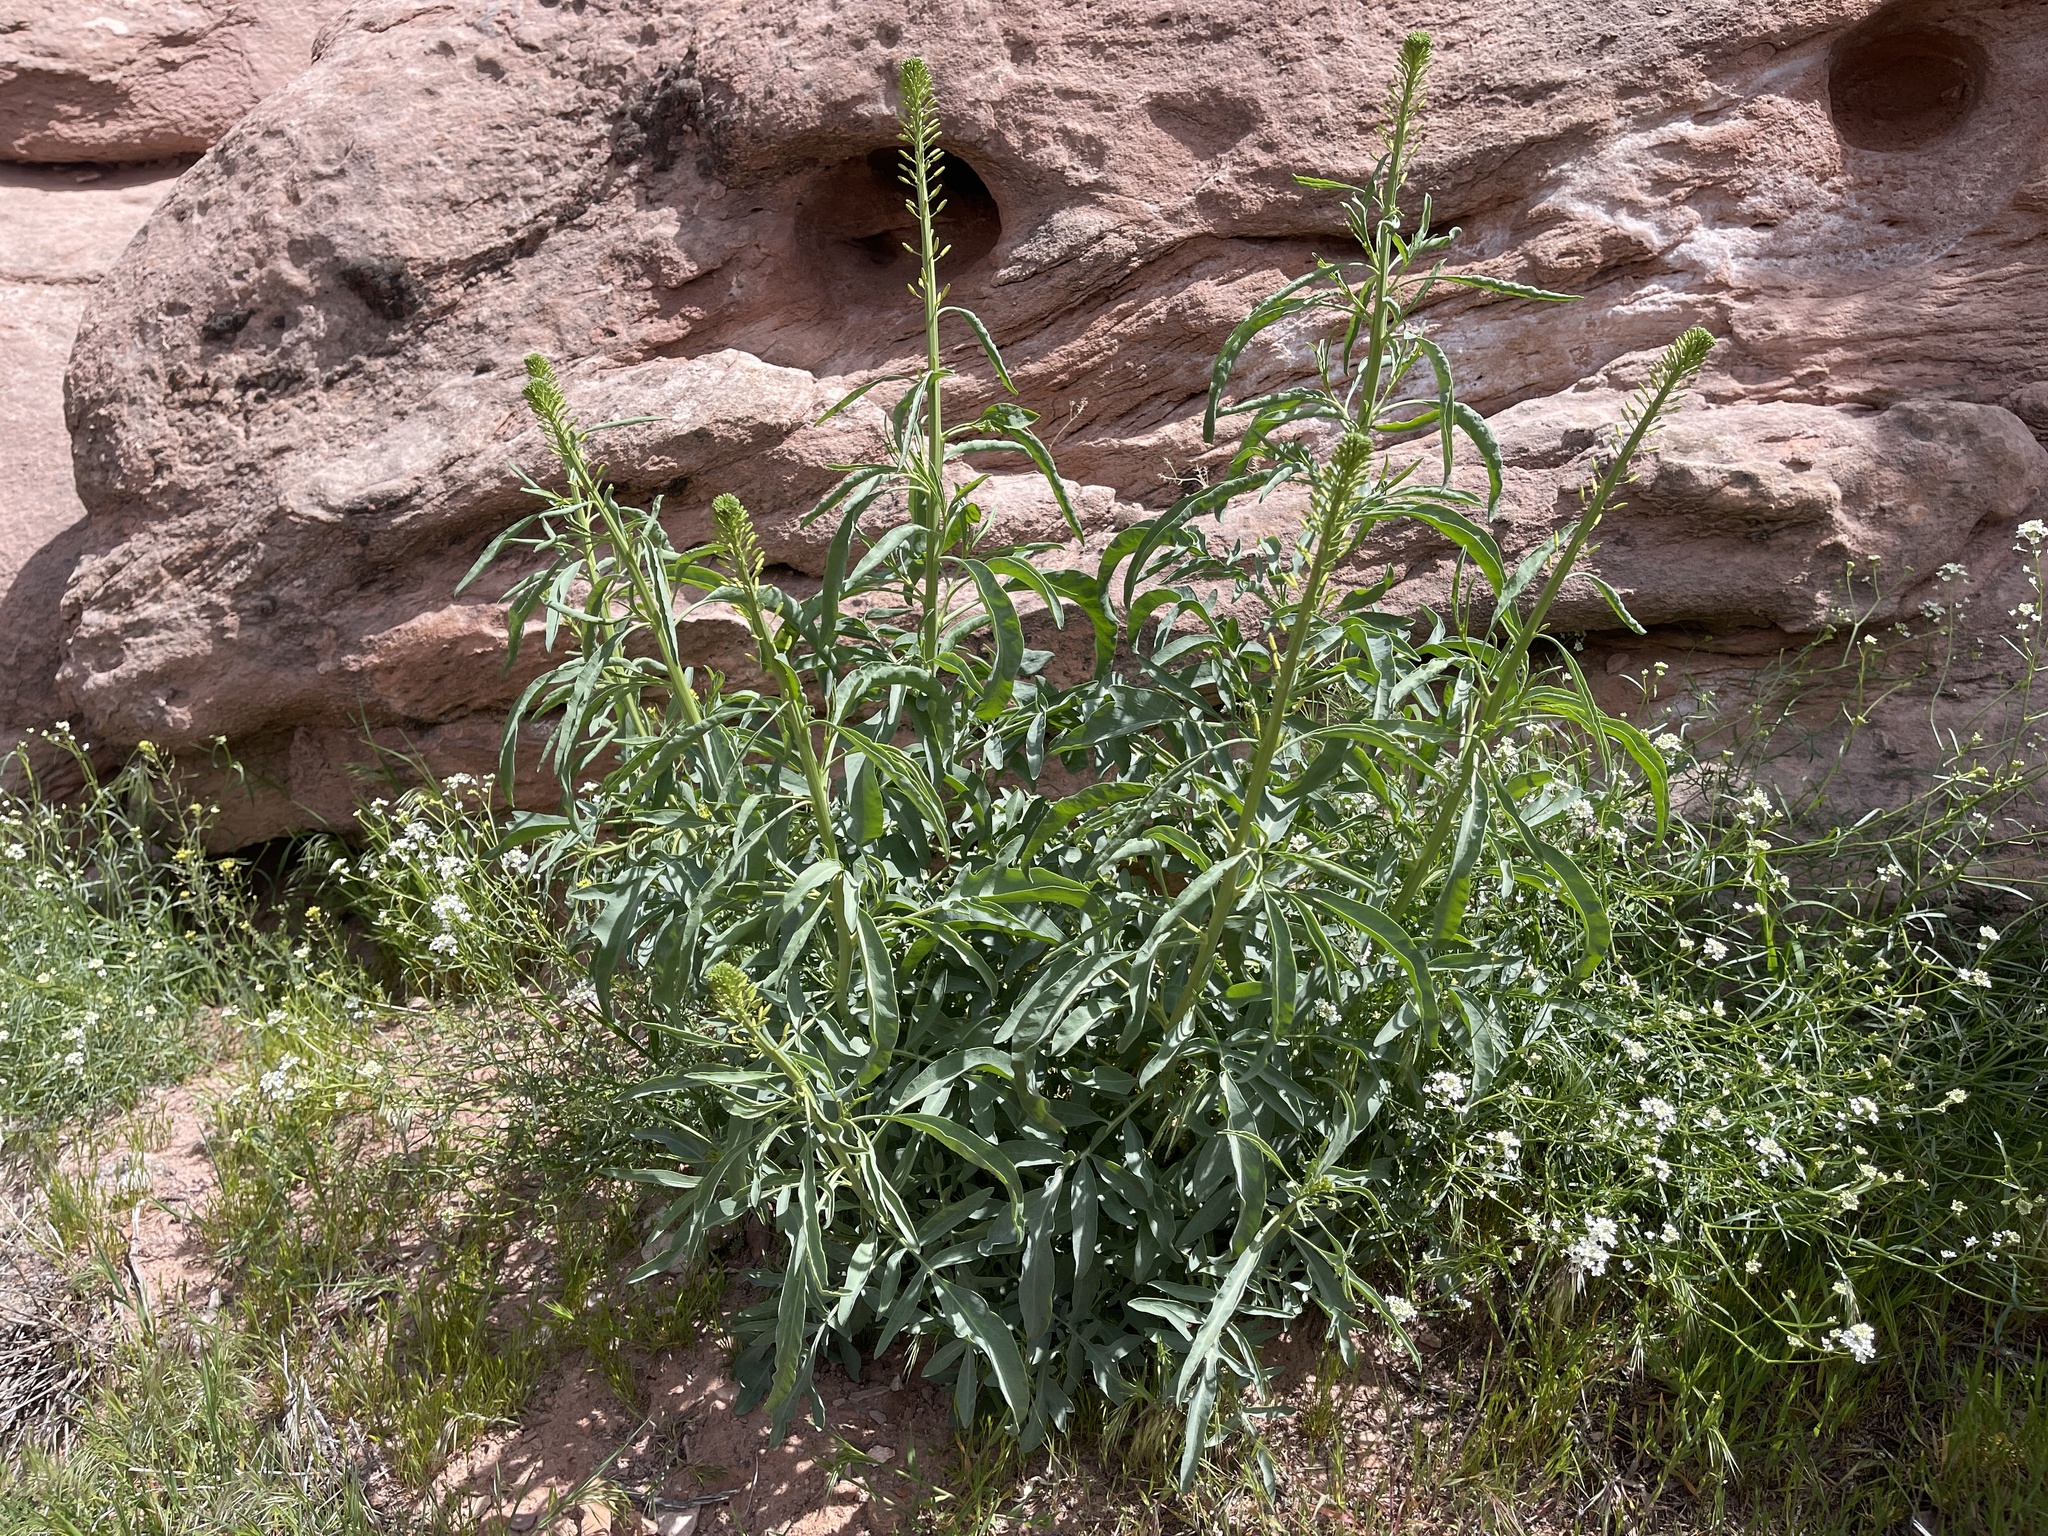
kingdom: Plantae
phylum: Tracheophyta
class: Magnoliopsida
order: Brassicales
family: Brassicaceae
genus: Stanleya
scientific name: Stanleya pinnata
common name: Prince's-plume
